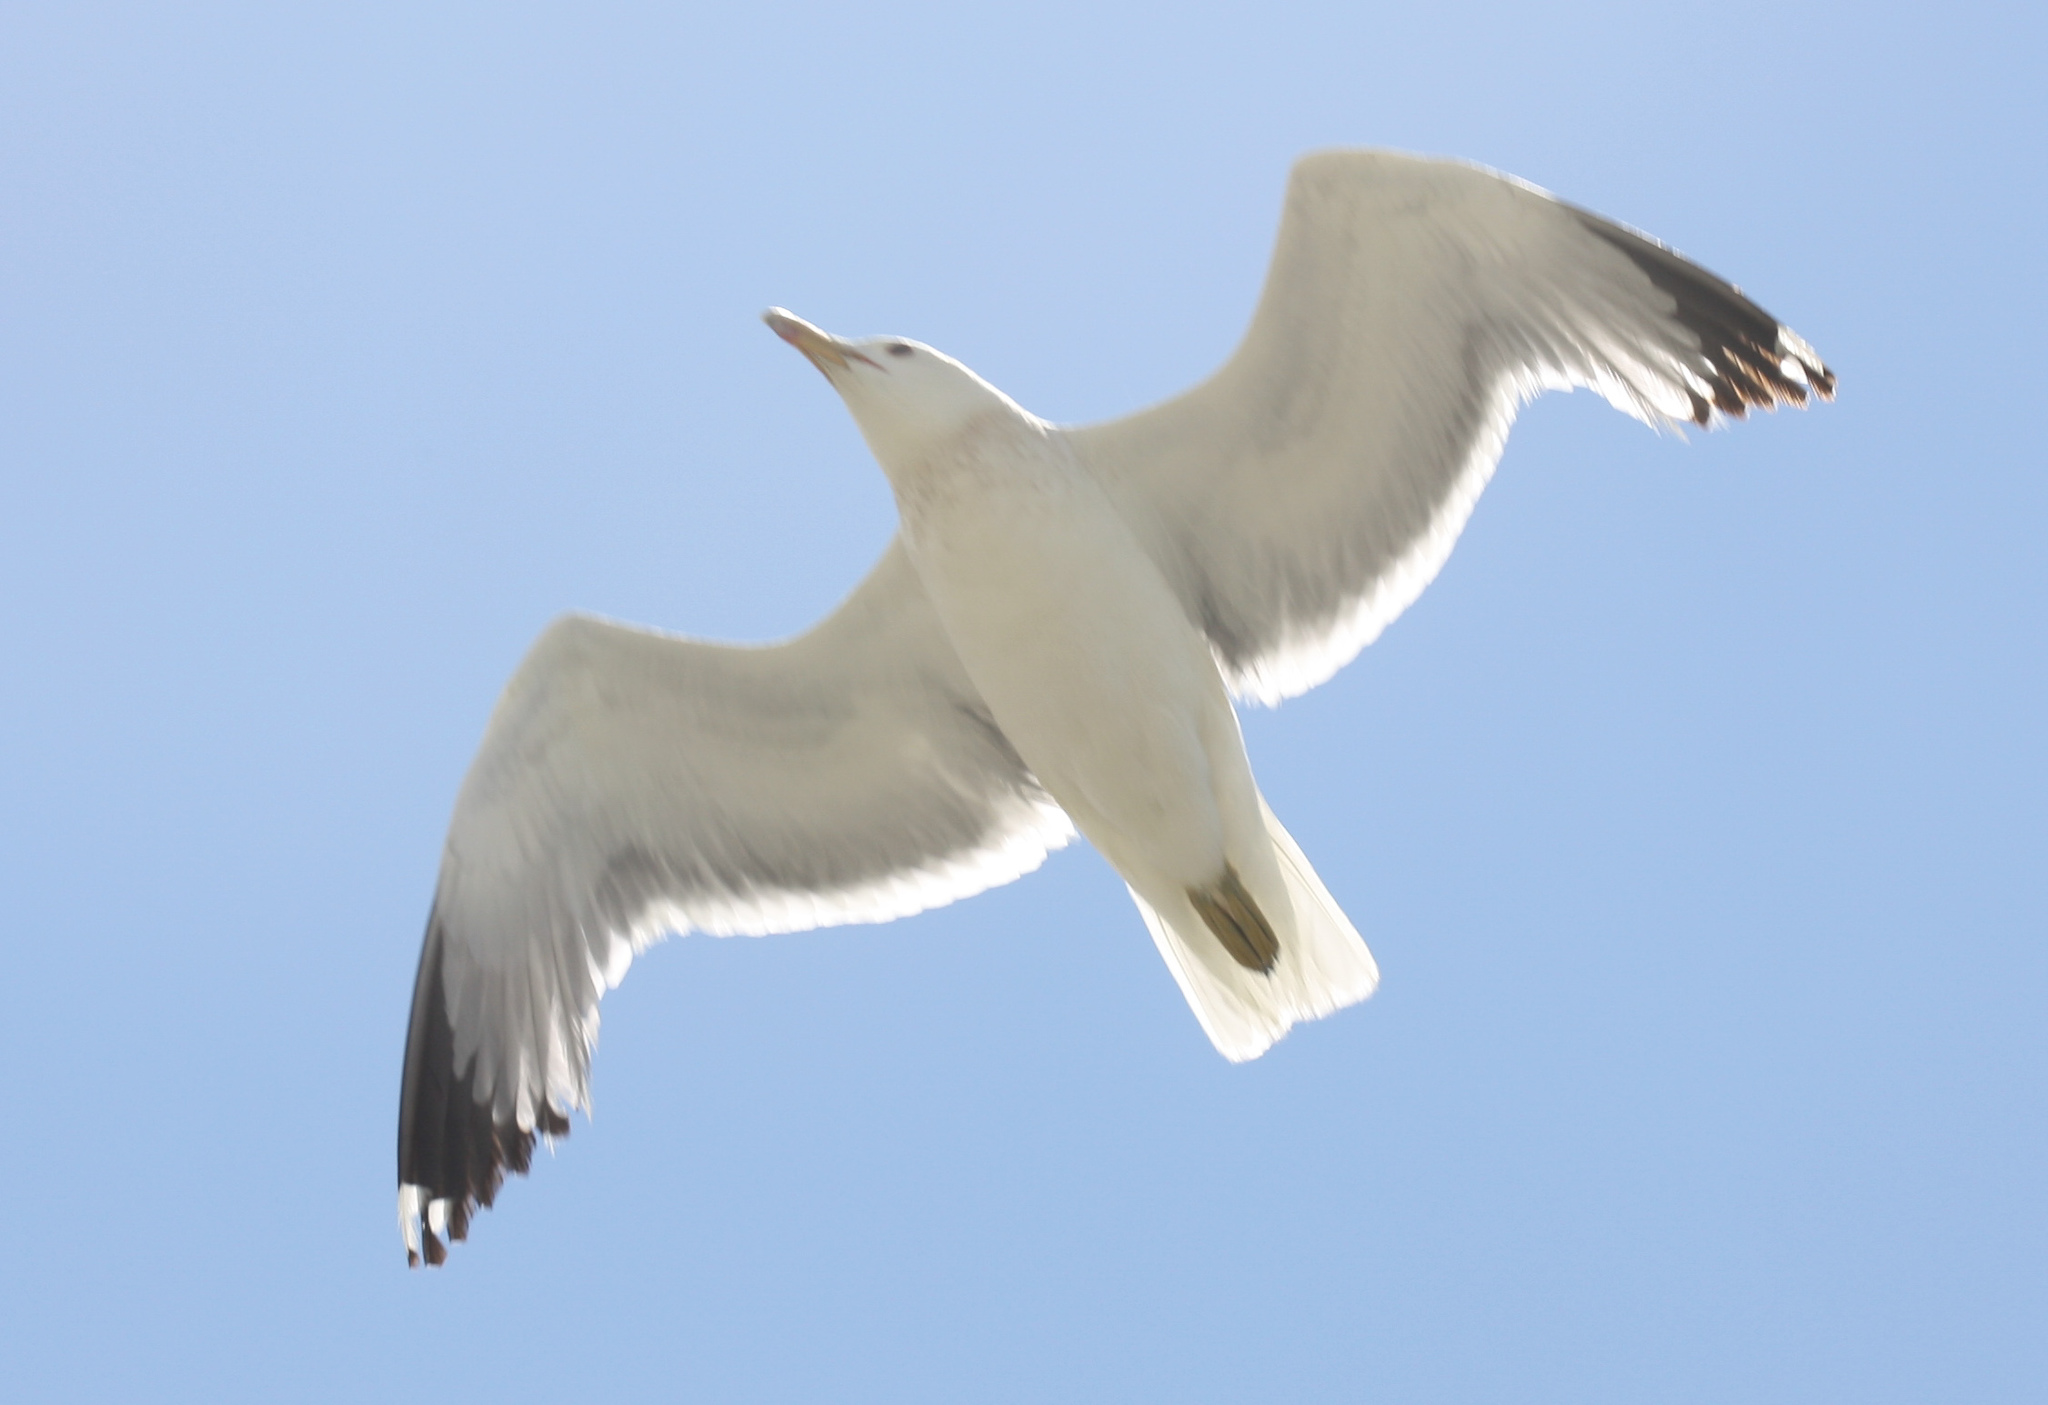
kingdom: Animalia
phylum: Chordata
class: Aves
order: Charadriiformes
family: Laridae
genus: Larus
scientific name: Larus californicus
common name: California gull
